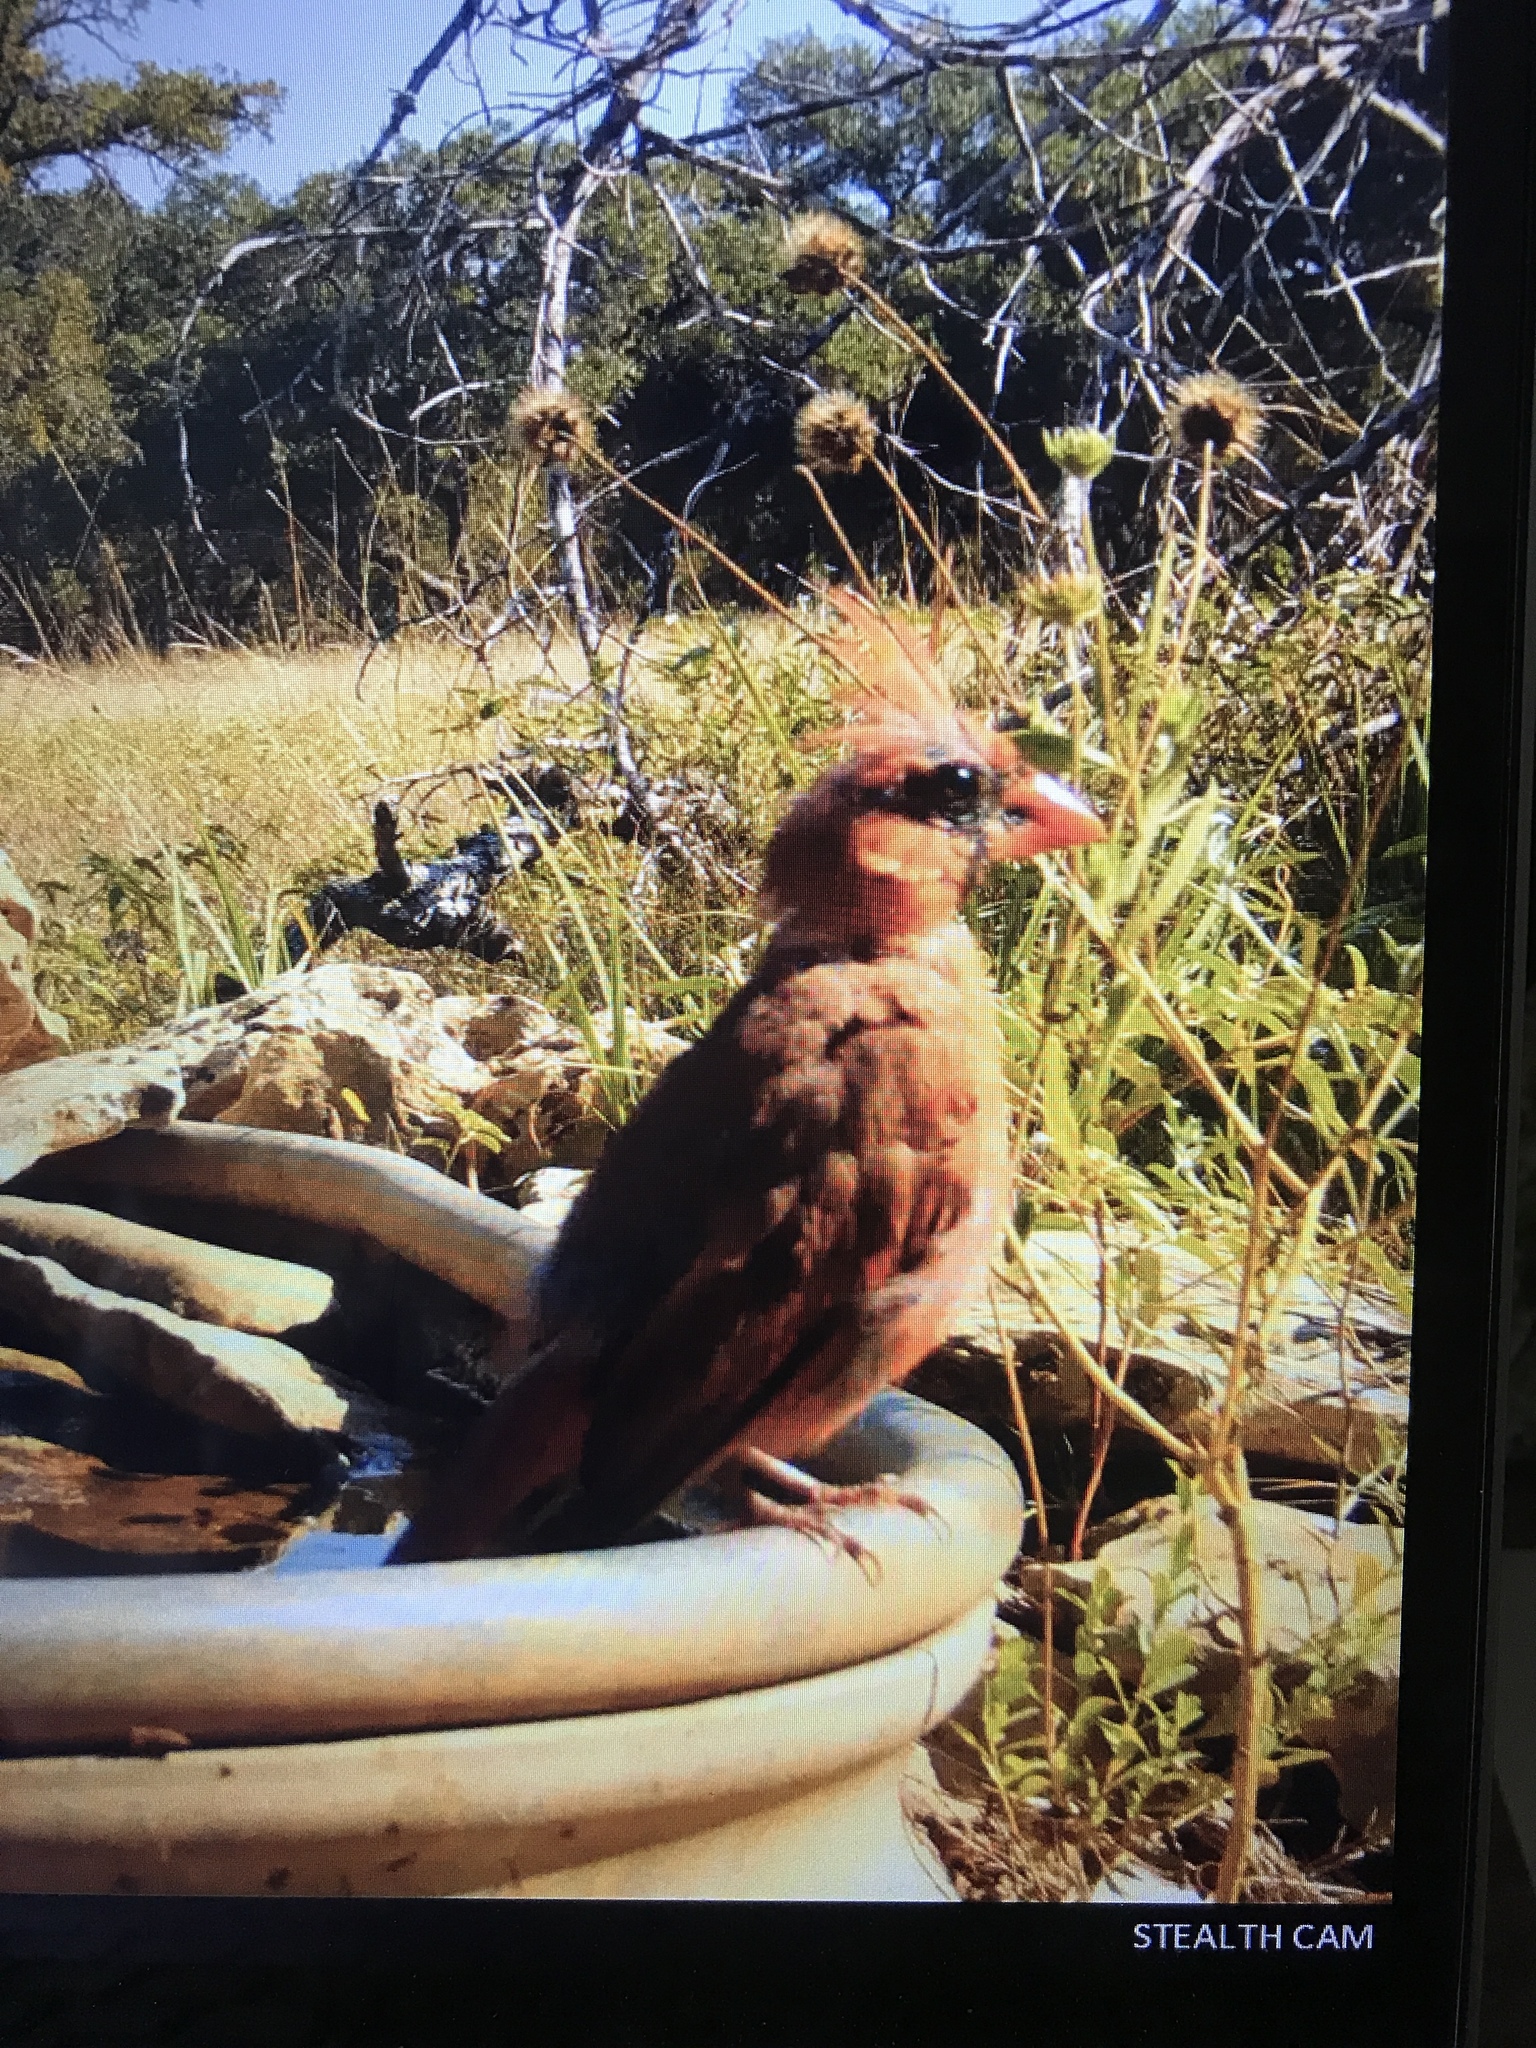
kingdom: Animalia
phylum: Chordata
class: Aves
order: Passeriformes
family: Cardinalidae
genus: Cardinalis
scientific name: Cardinalis cardinalis
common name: Northern cardinal
